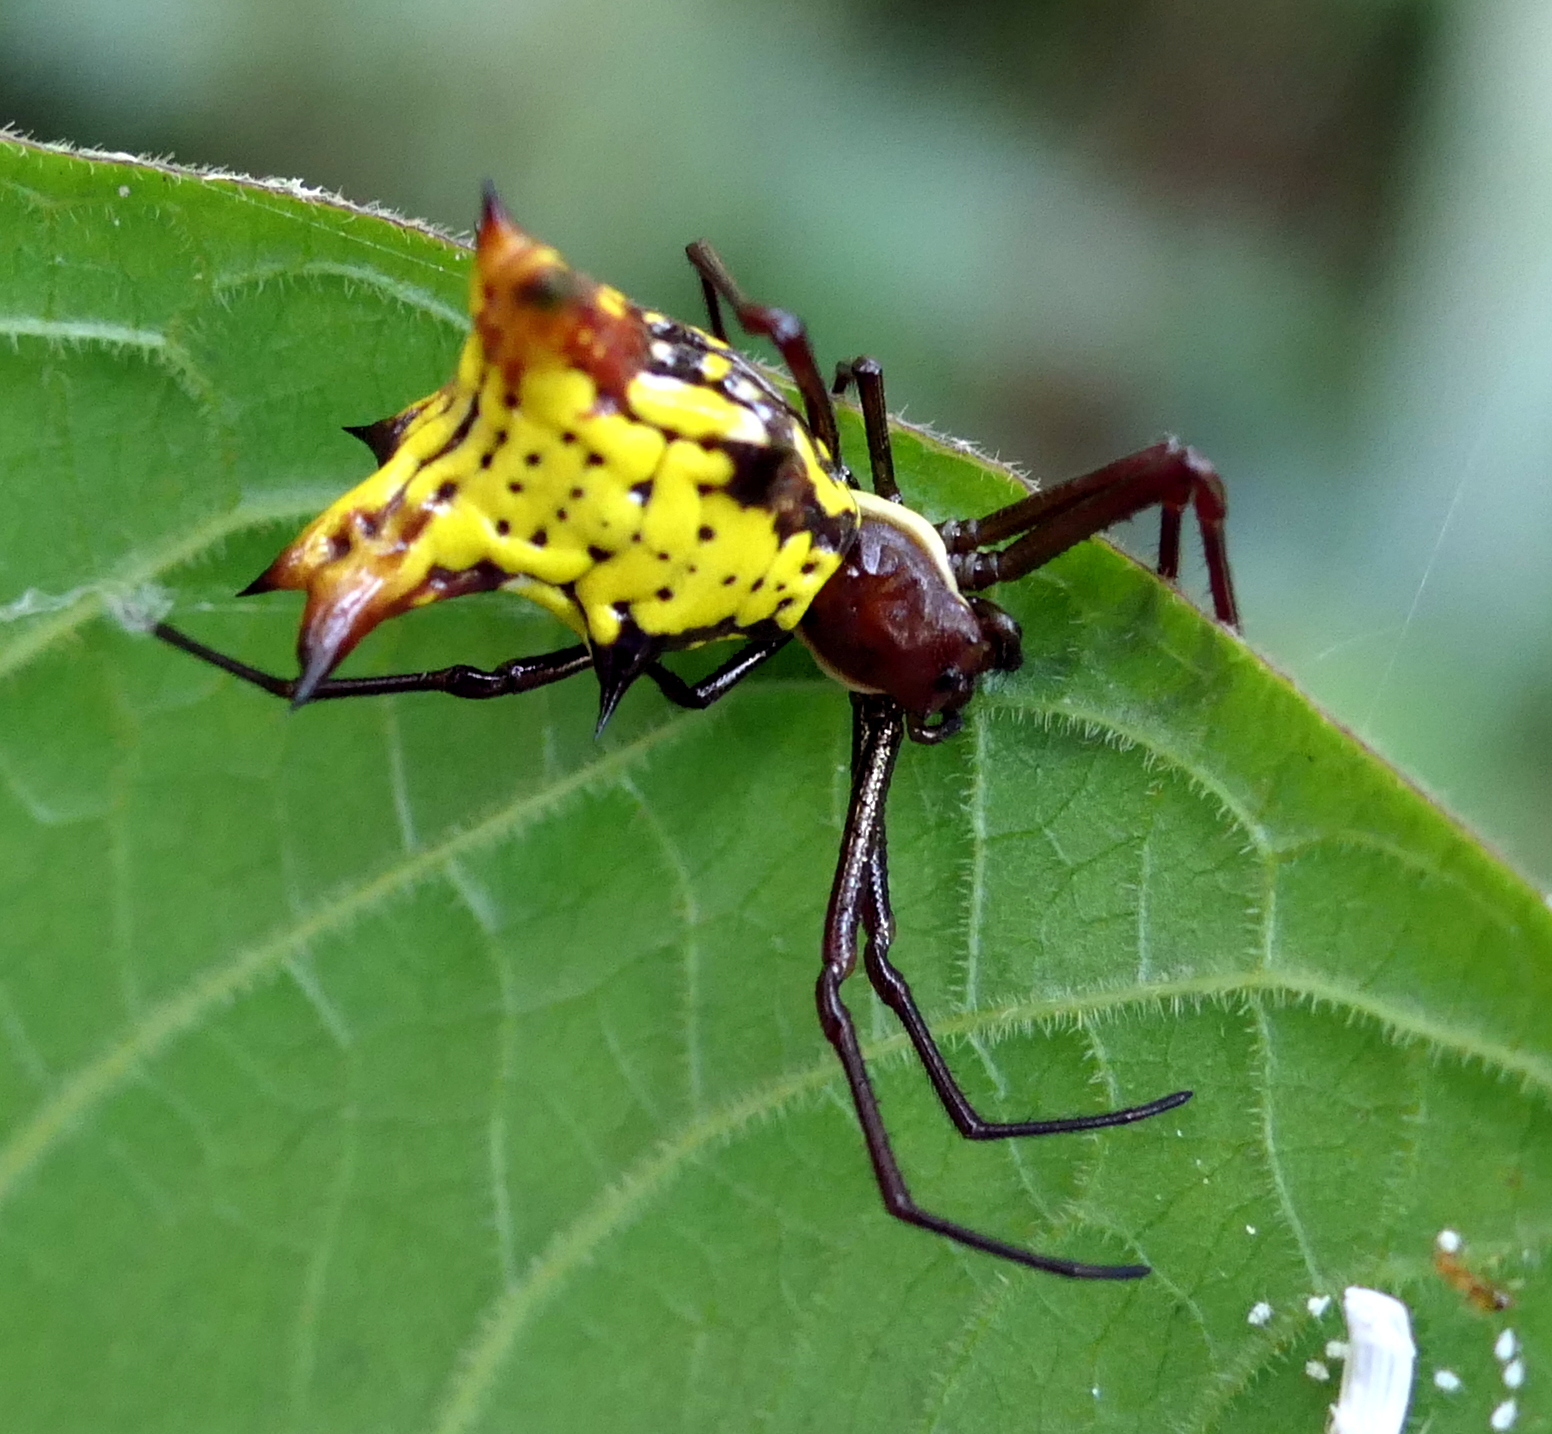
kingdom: Animalia
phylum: Arthropoda
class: Arachnida
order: Araneae
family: Araneidae
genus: Micrathena
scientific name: Micrathena fissispina
